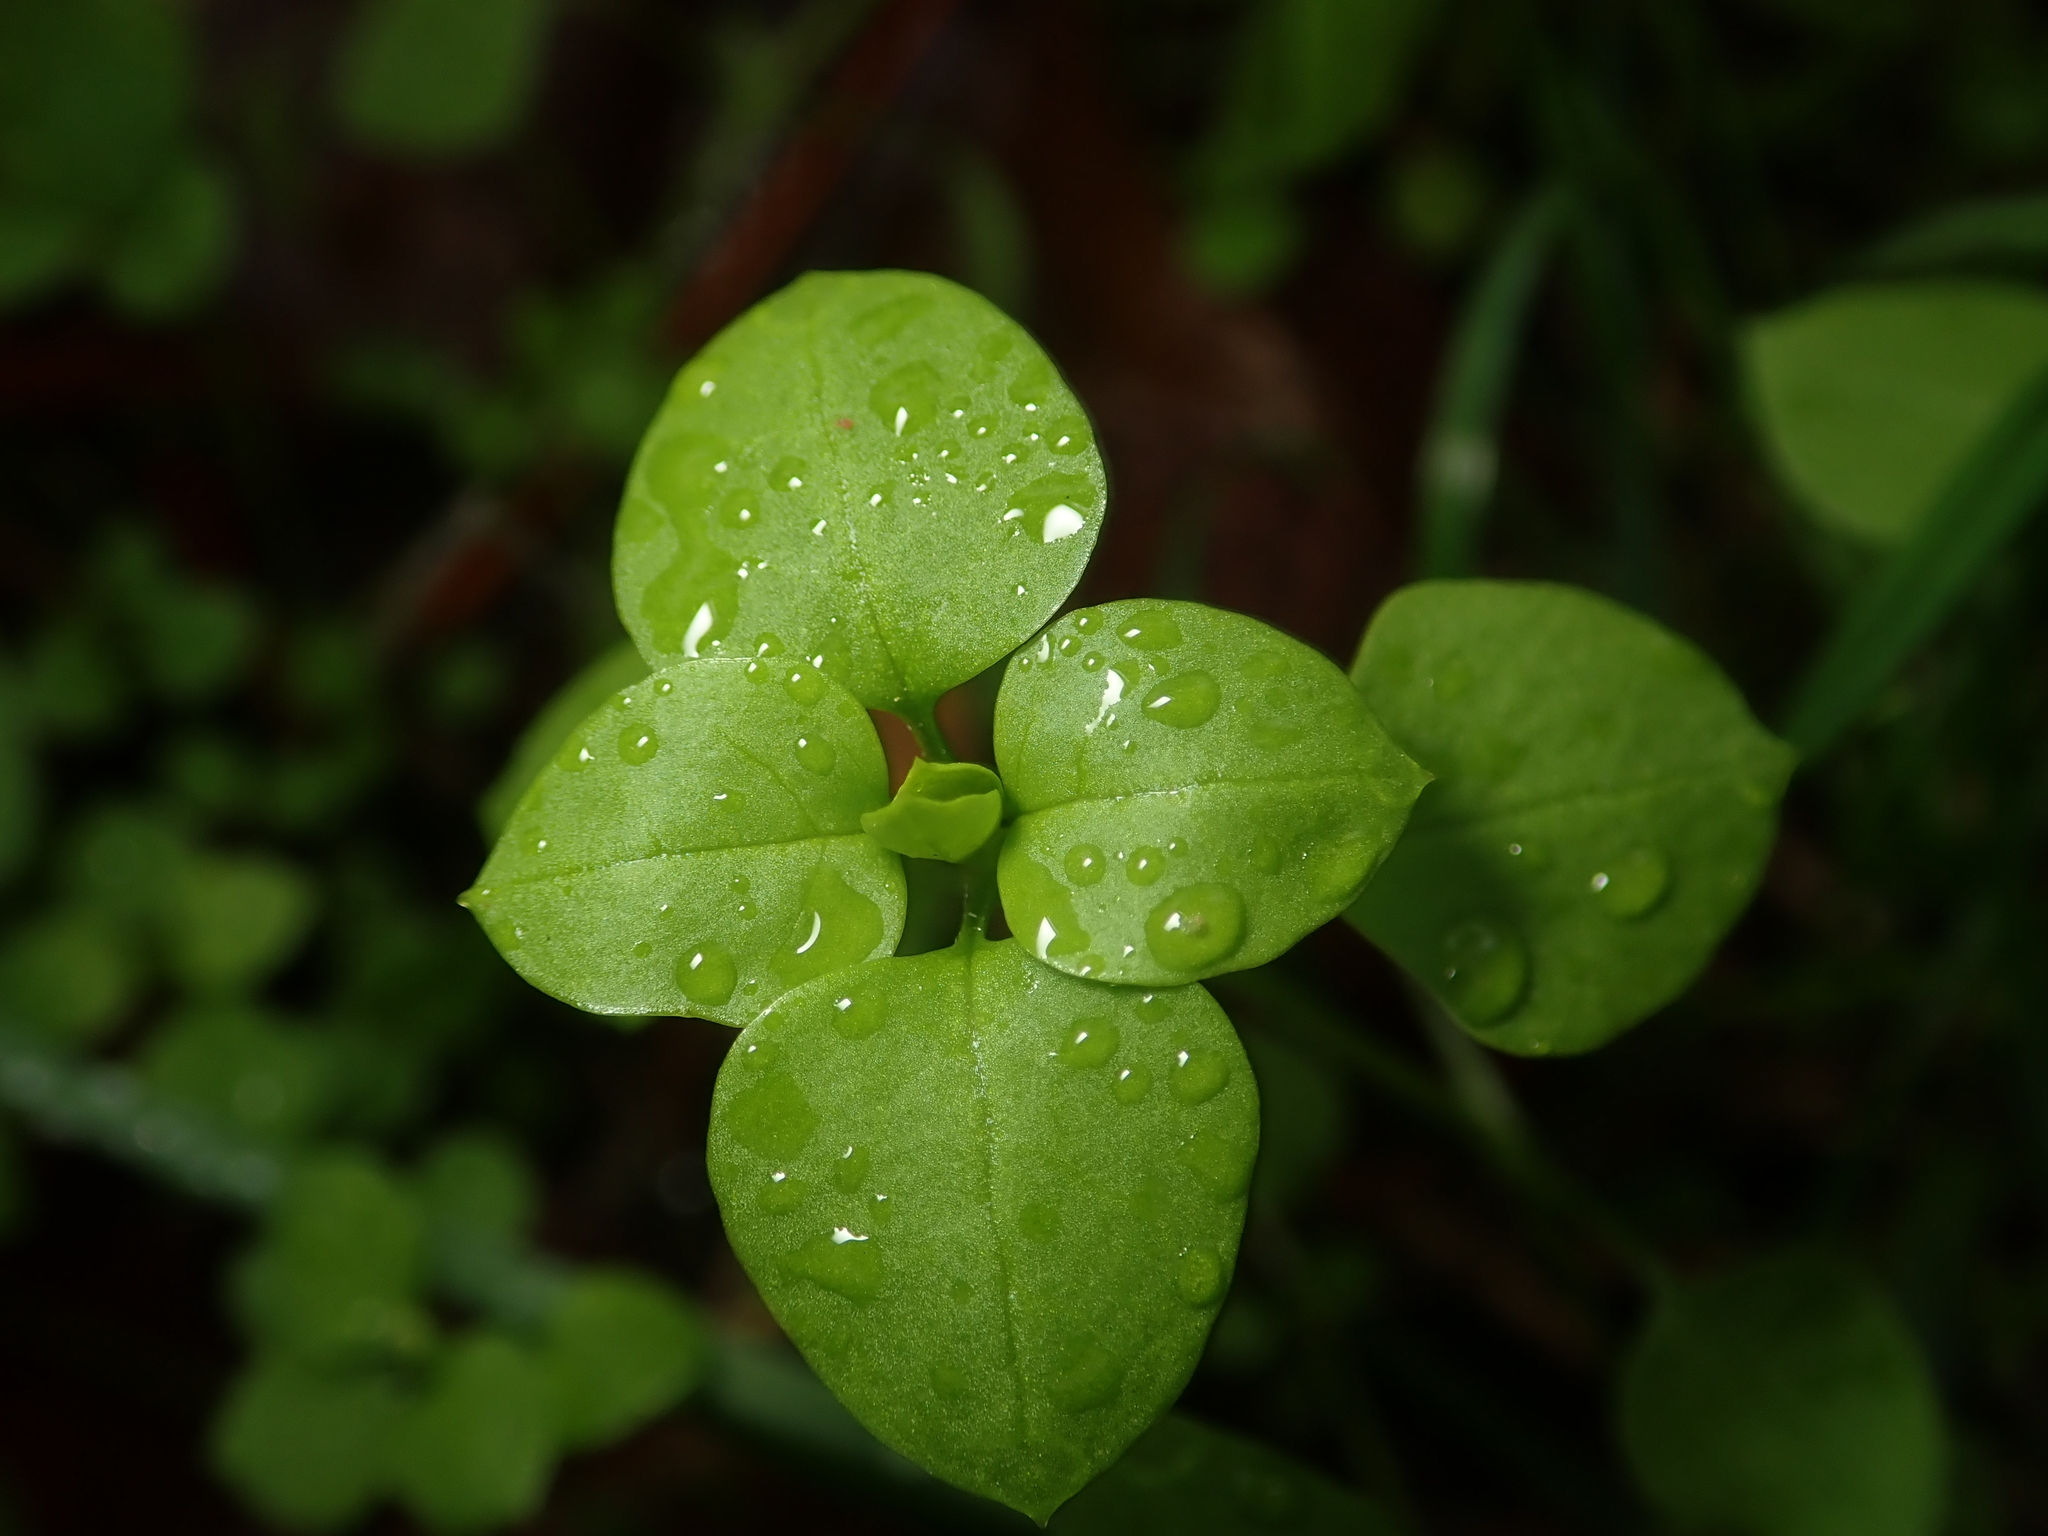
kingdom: Plantae
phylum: Tracheophyta
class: Magnoliopsida
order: Caryophyllales
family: Caryophyllaceae
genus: Stellaria
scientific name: Stellaria media
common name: Common chickweed
